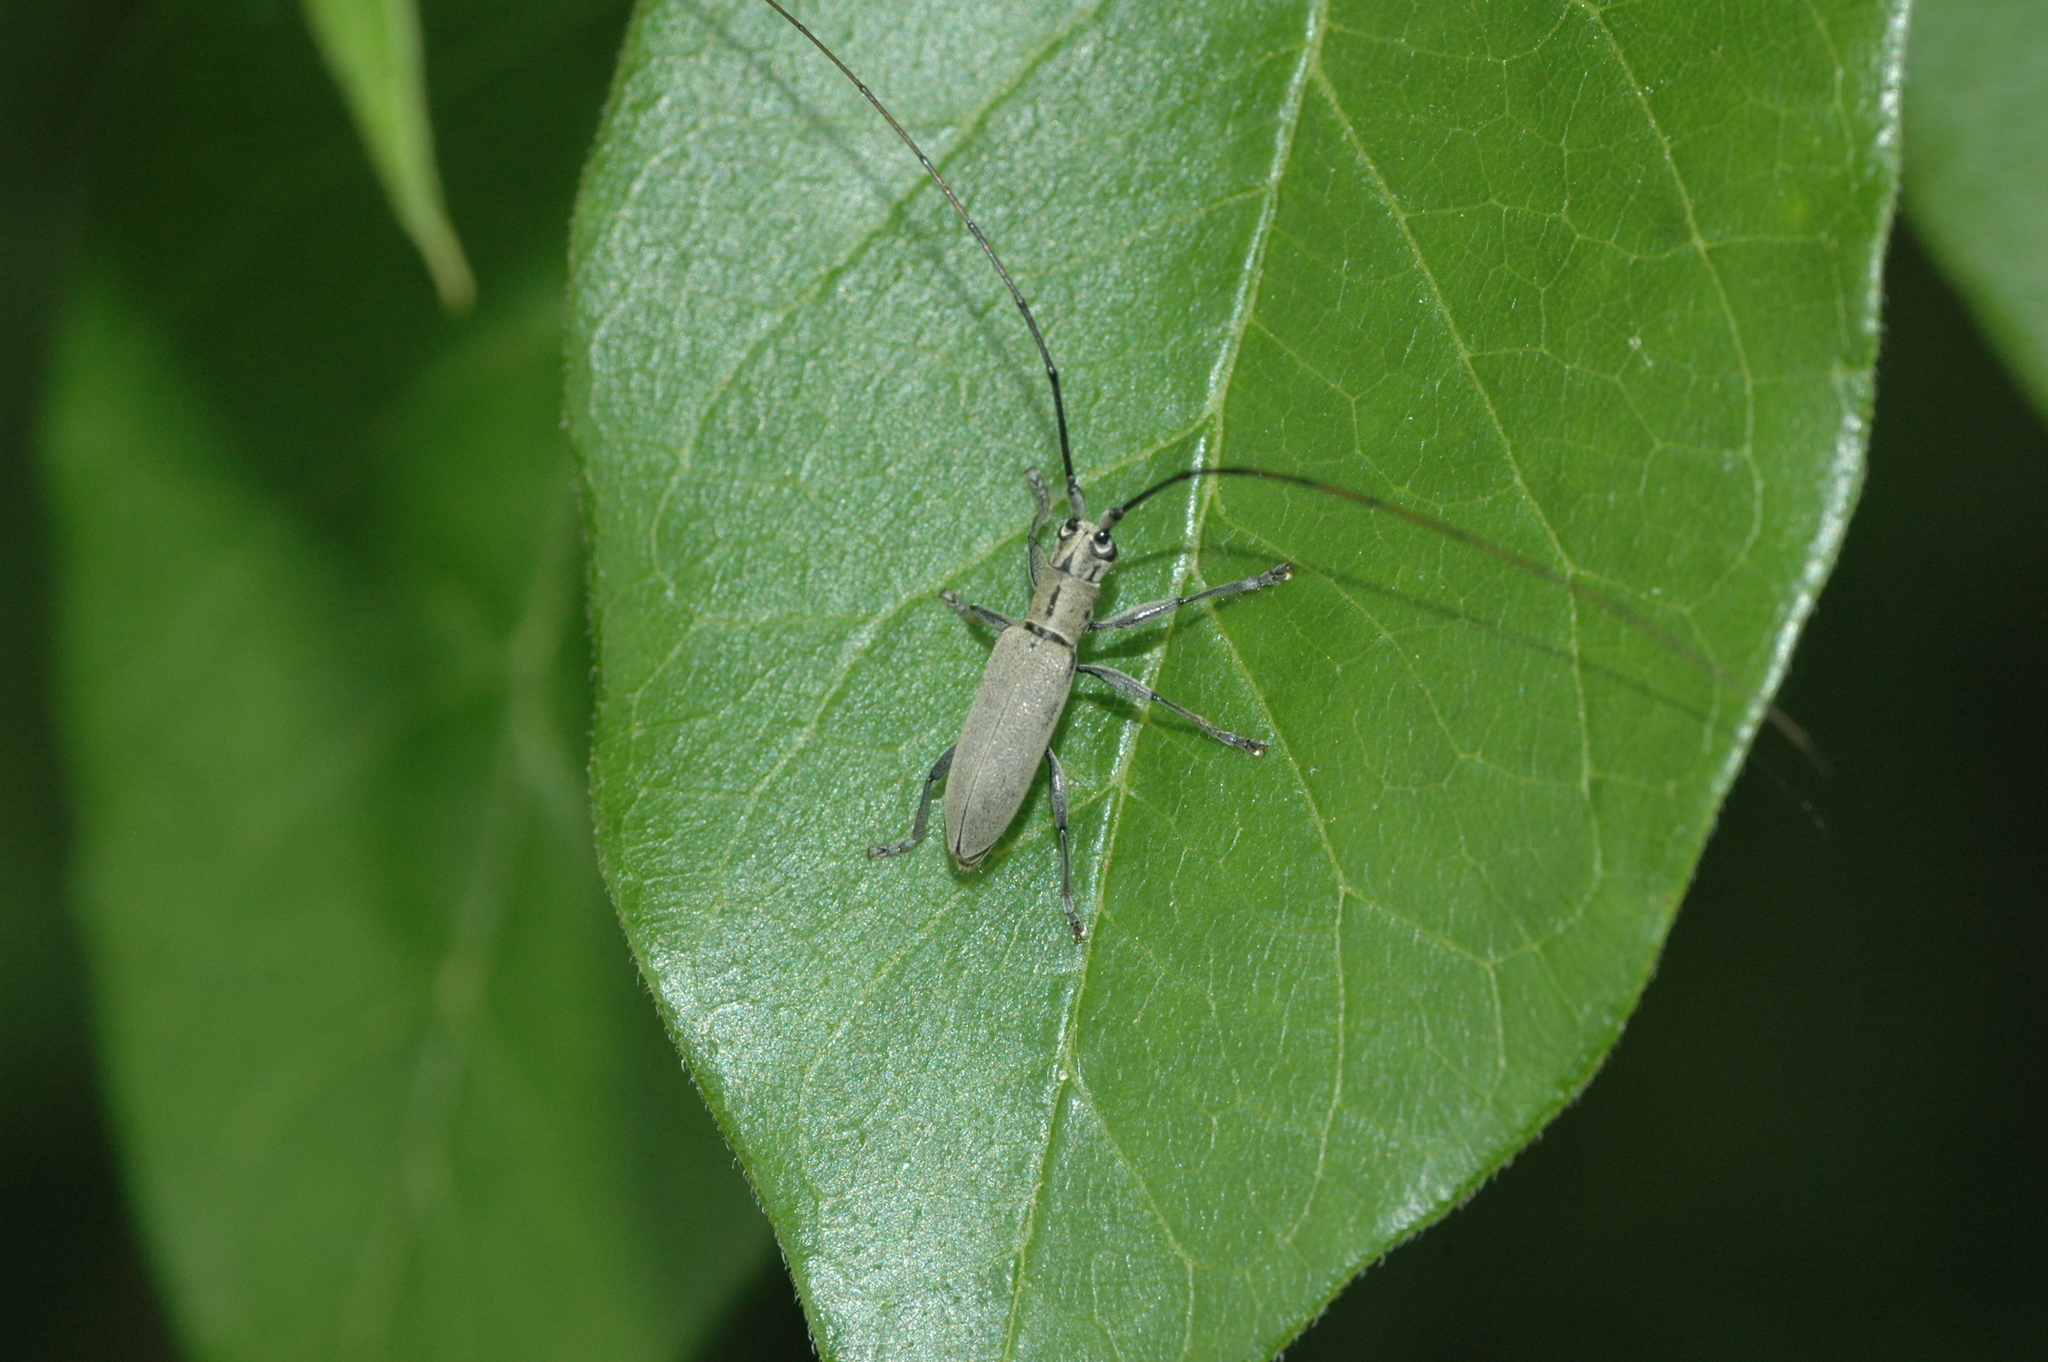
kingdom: Animalia
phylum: Arthropoda
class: Insecta
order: Coleoptera
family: Cerambycidae
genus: Dorcaschema
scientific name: Dorcaschema cinereum
